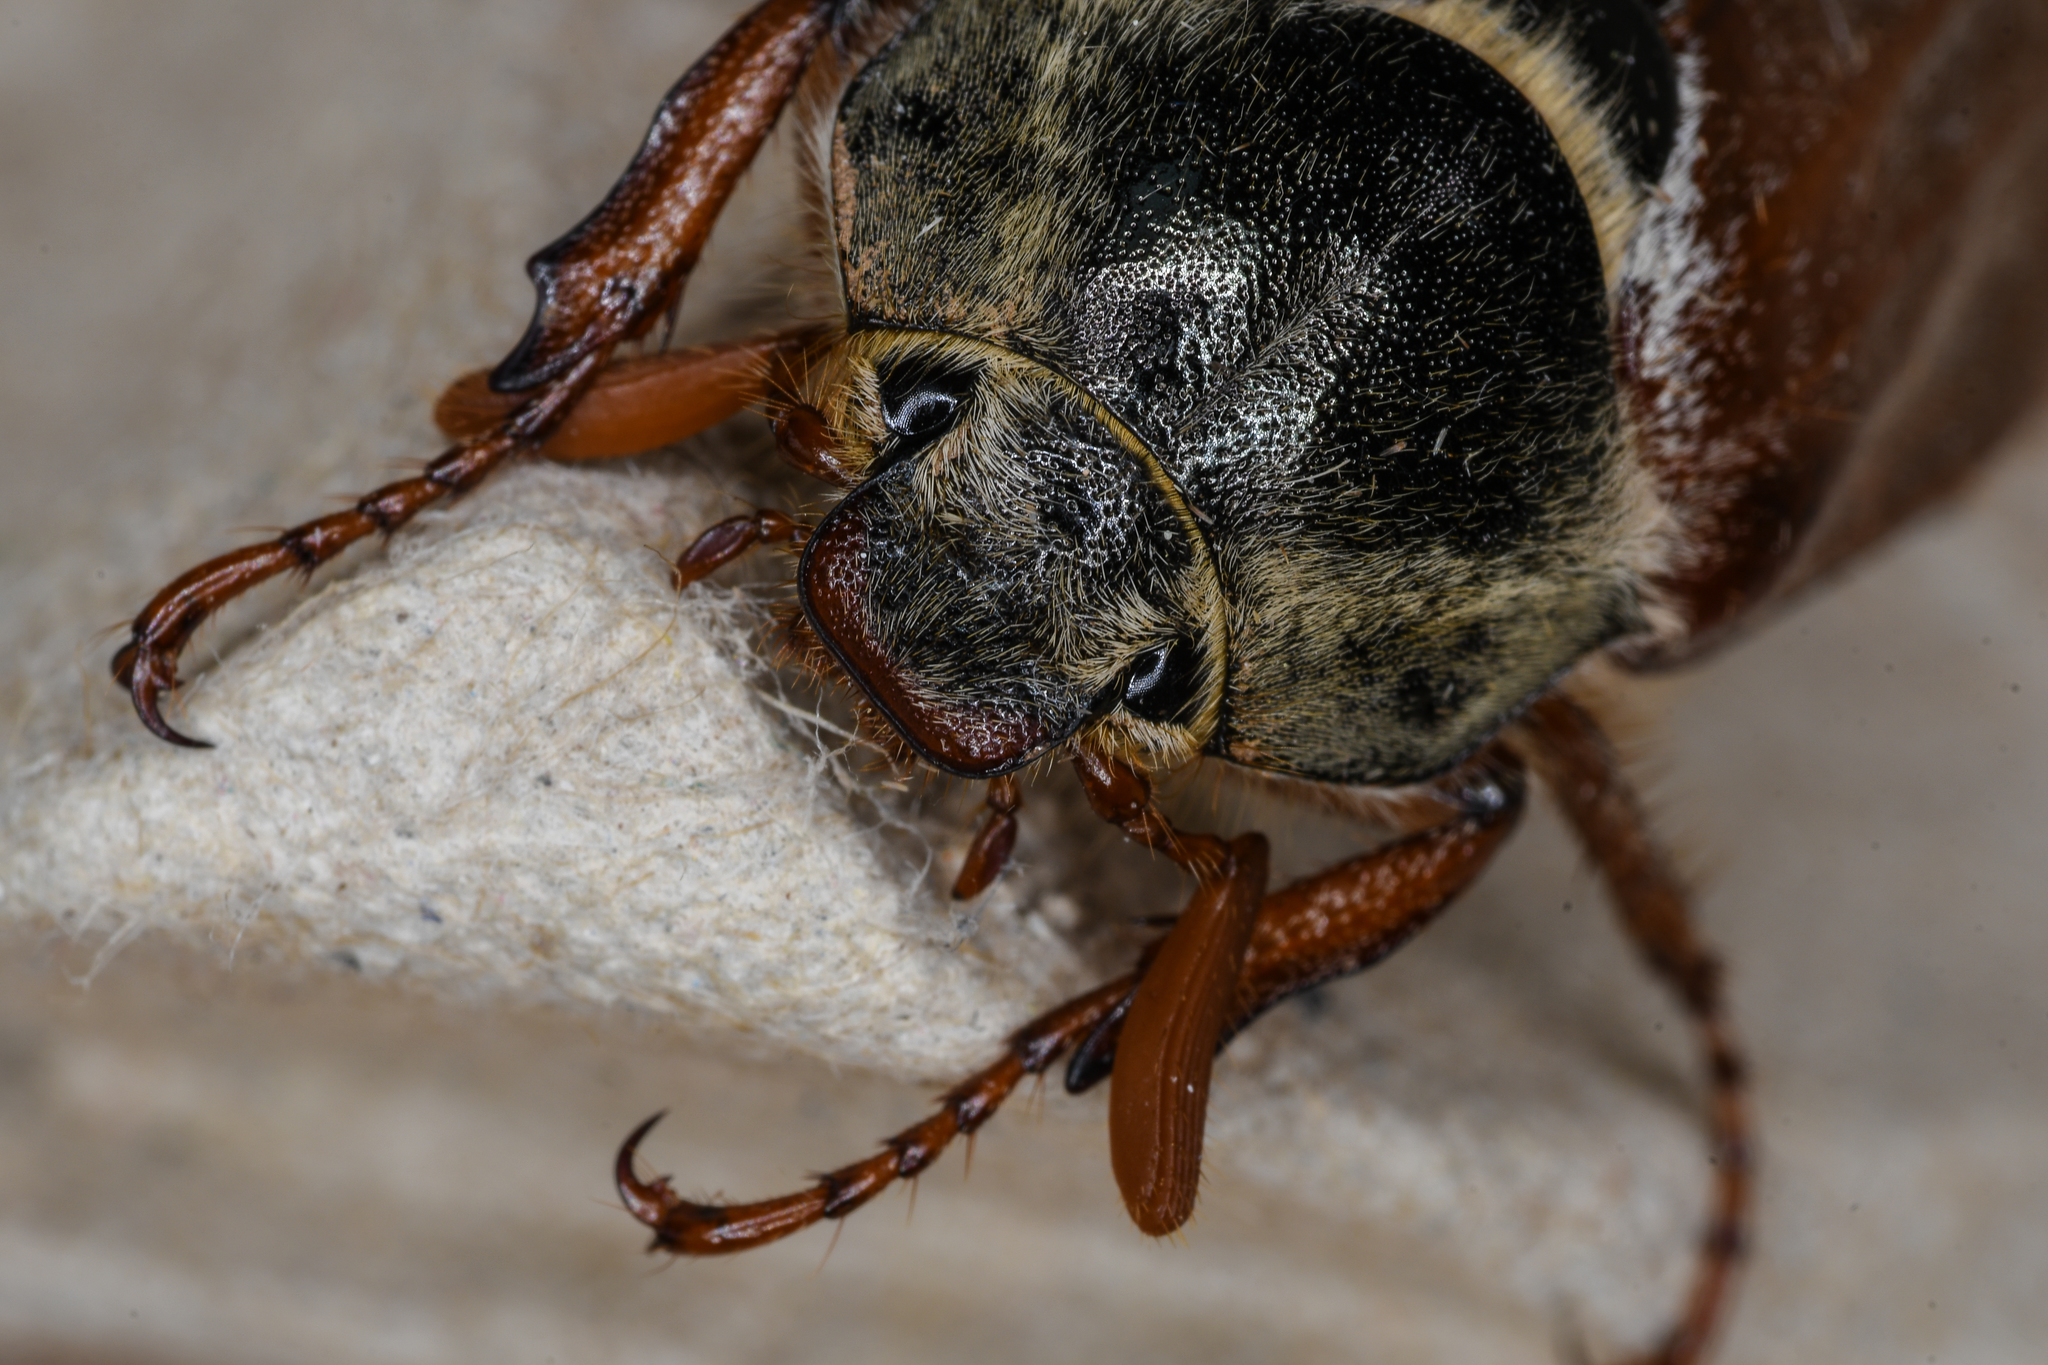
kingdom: Animalia
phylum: Arthropoda
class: Insecta
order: Coleoptera
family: Scarabaeidae
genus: Melolontha
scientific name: Melolontha melolontha
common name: Cockchafer maybeetle
